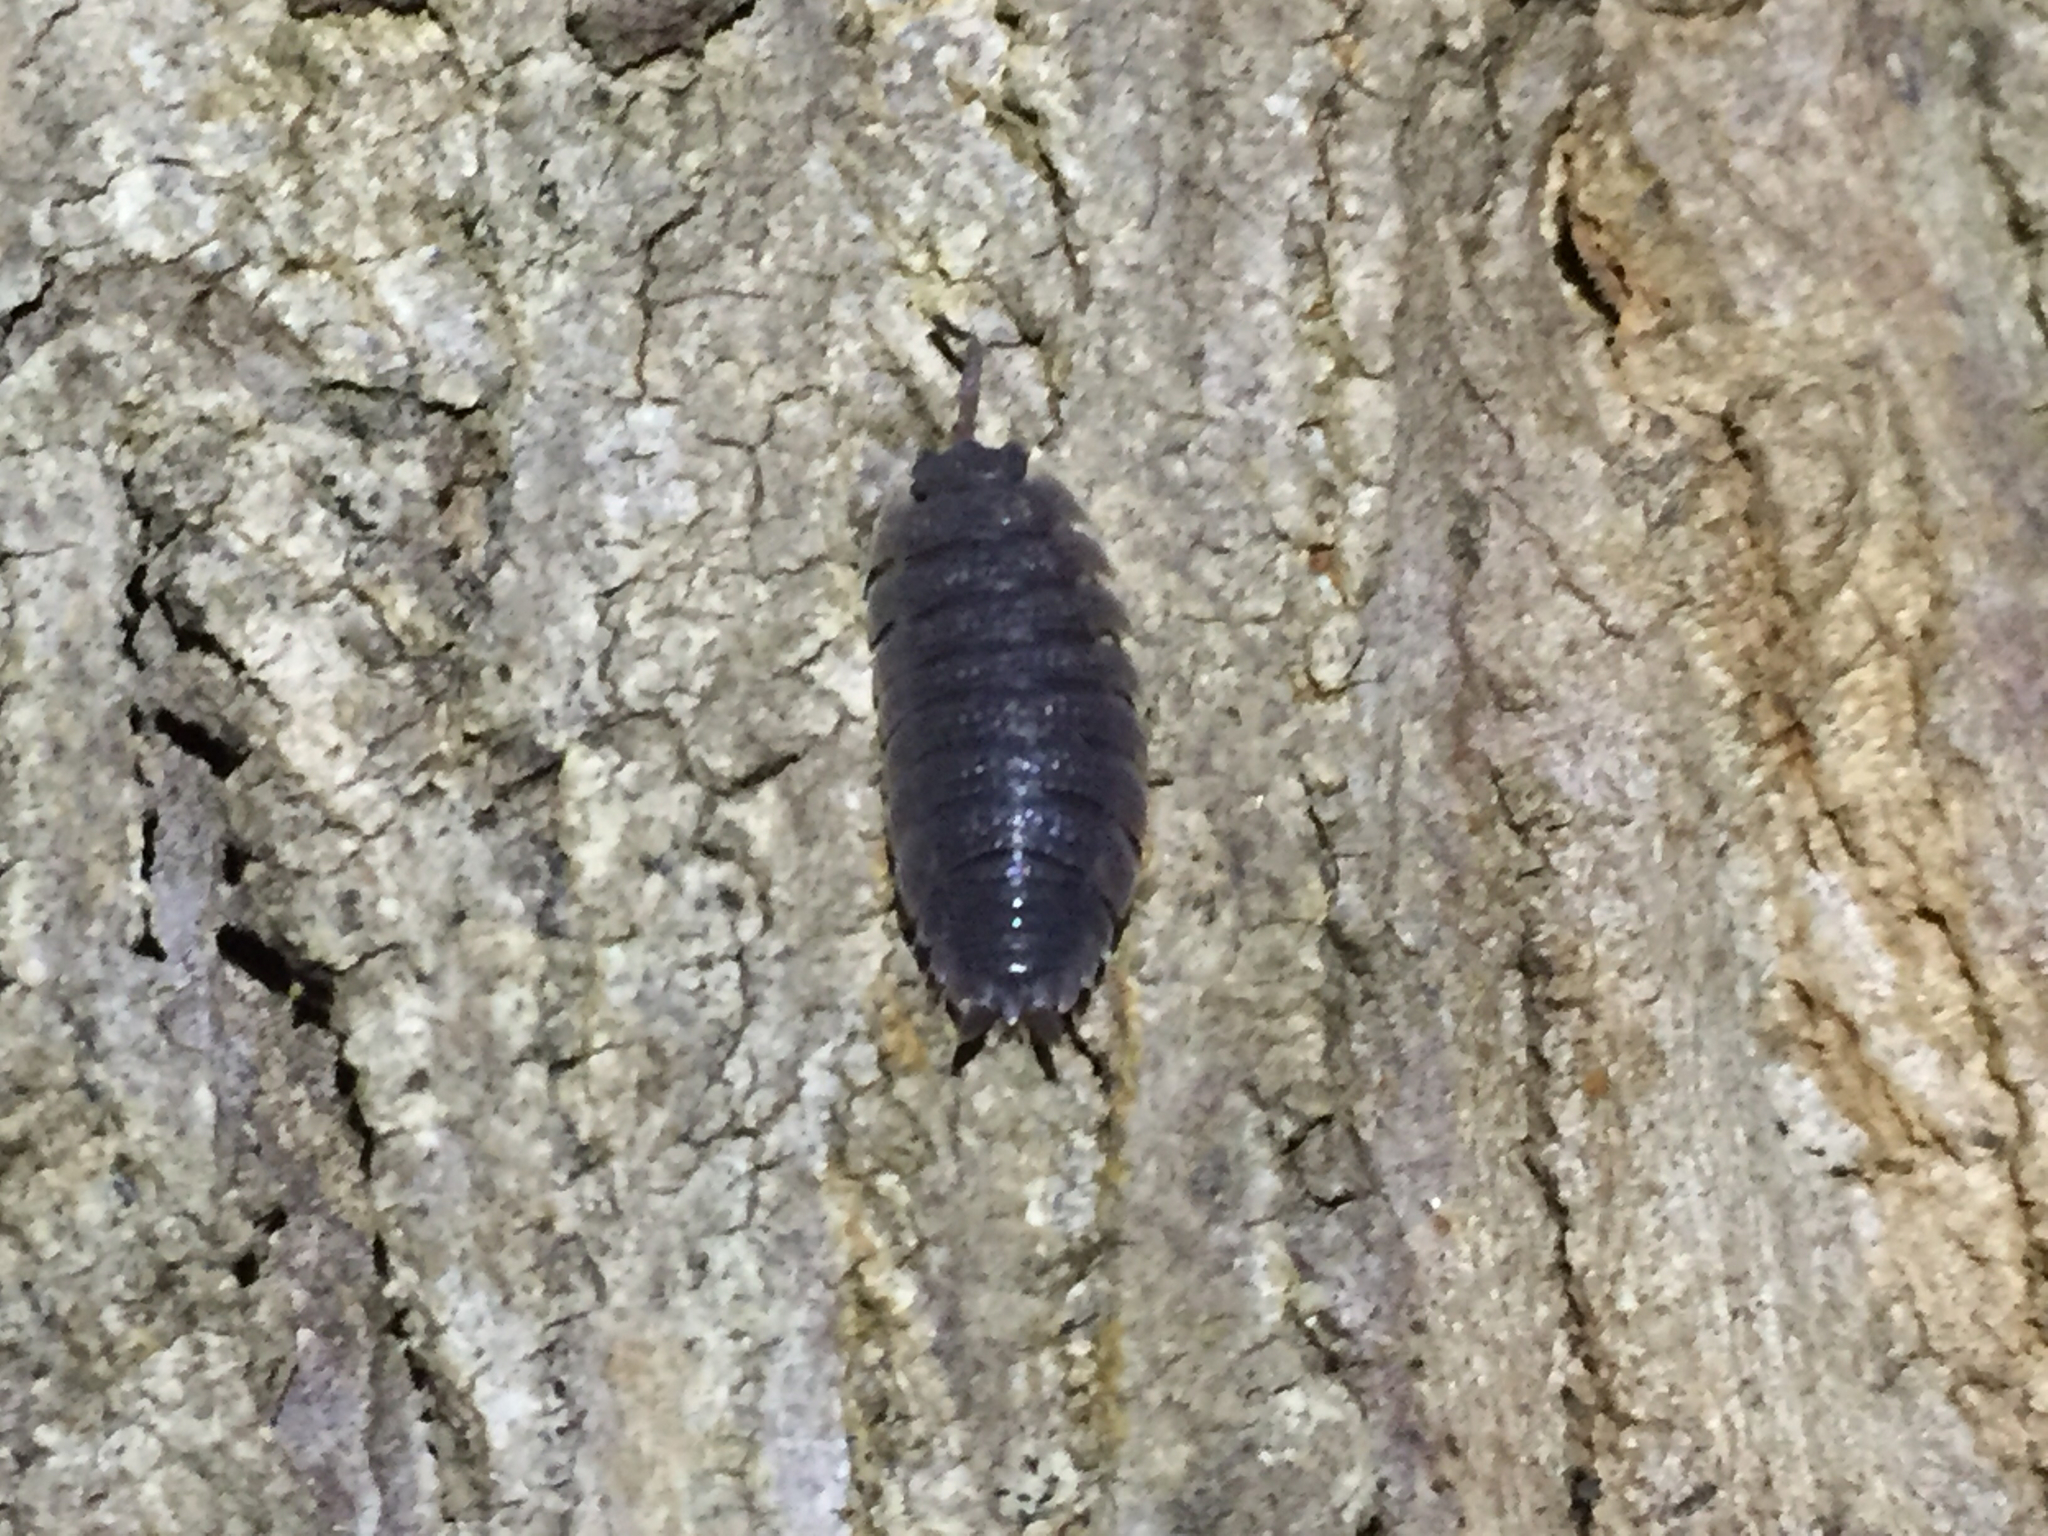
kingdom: Animalia
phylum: Arthropoda
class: Malacostraca
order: Isopoda
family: Porcellionidae
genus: Porcellio
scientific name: Porcellio scaber
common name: Common rough woodlouse
